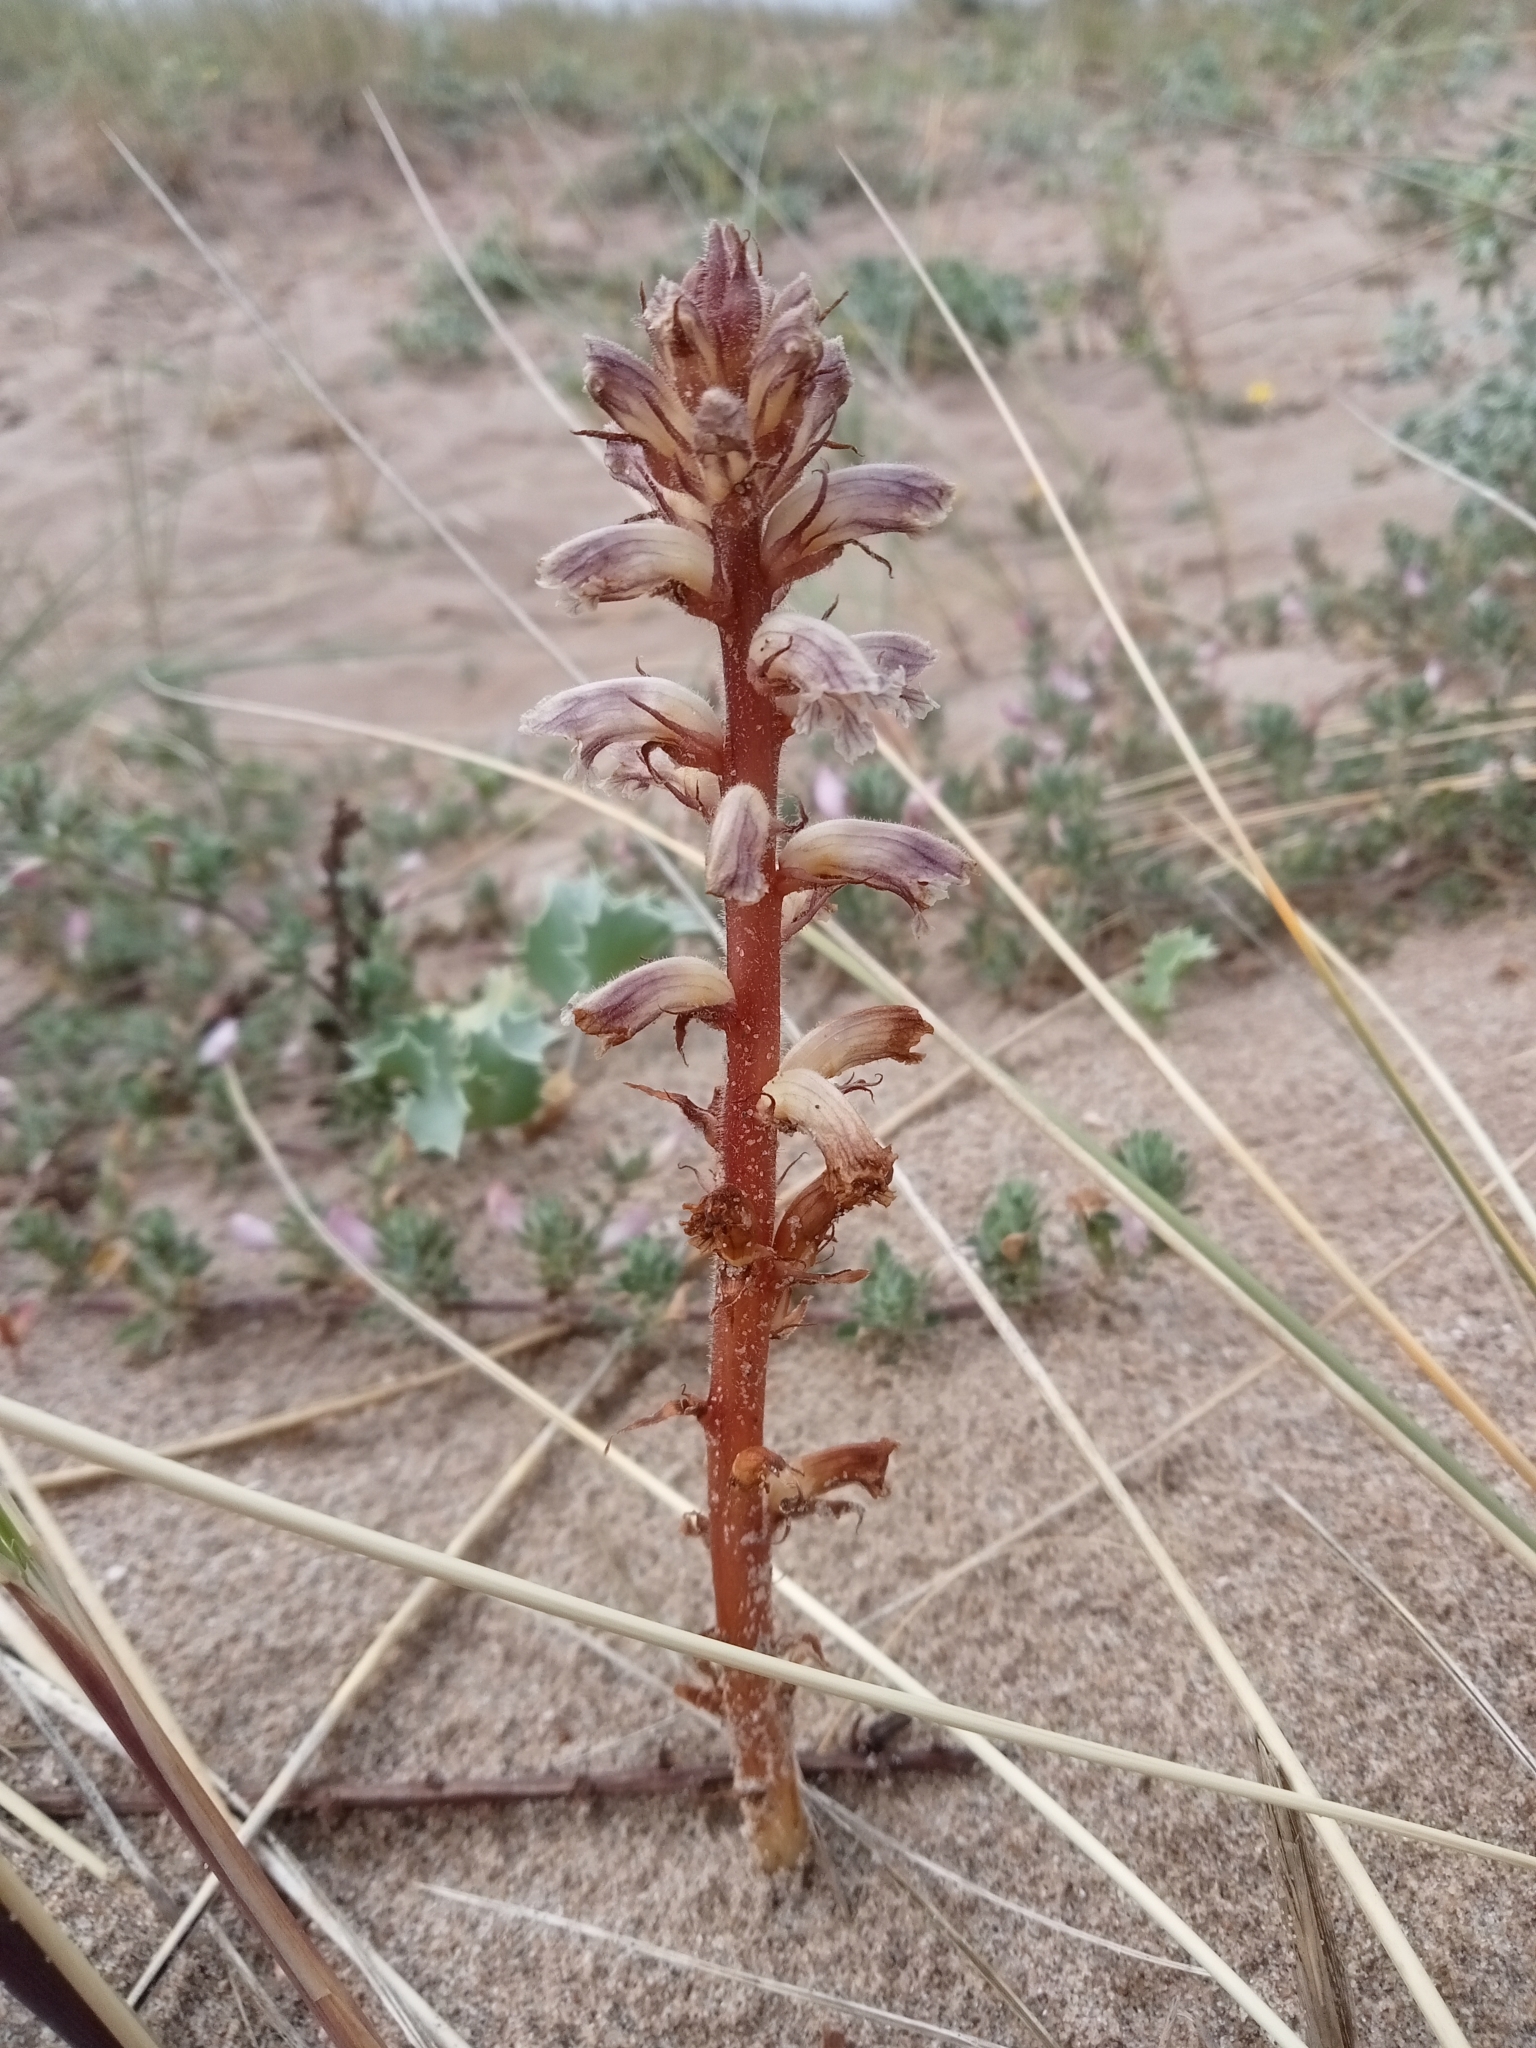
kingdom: Plantae
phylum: Tracheophyta
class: Magnoliopsida
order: Lamiales
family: Orobanchaceae
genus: Orobanche
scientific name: Orobanche minor
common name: Common broomrape
